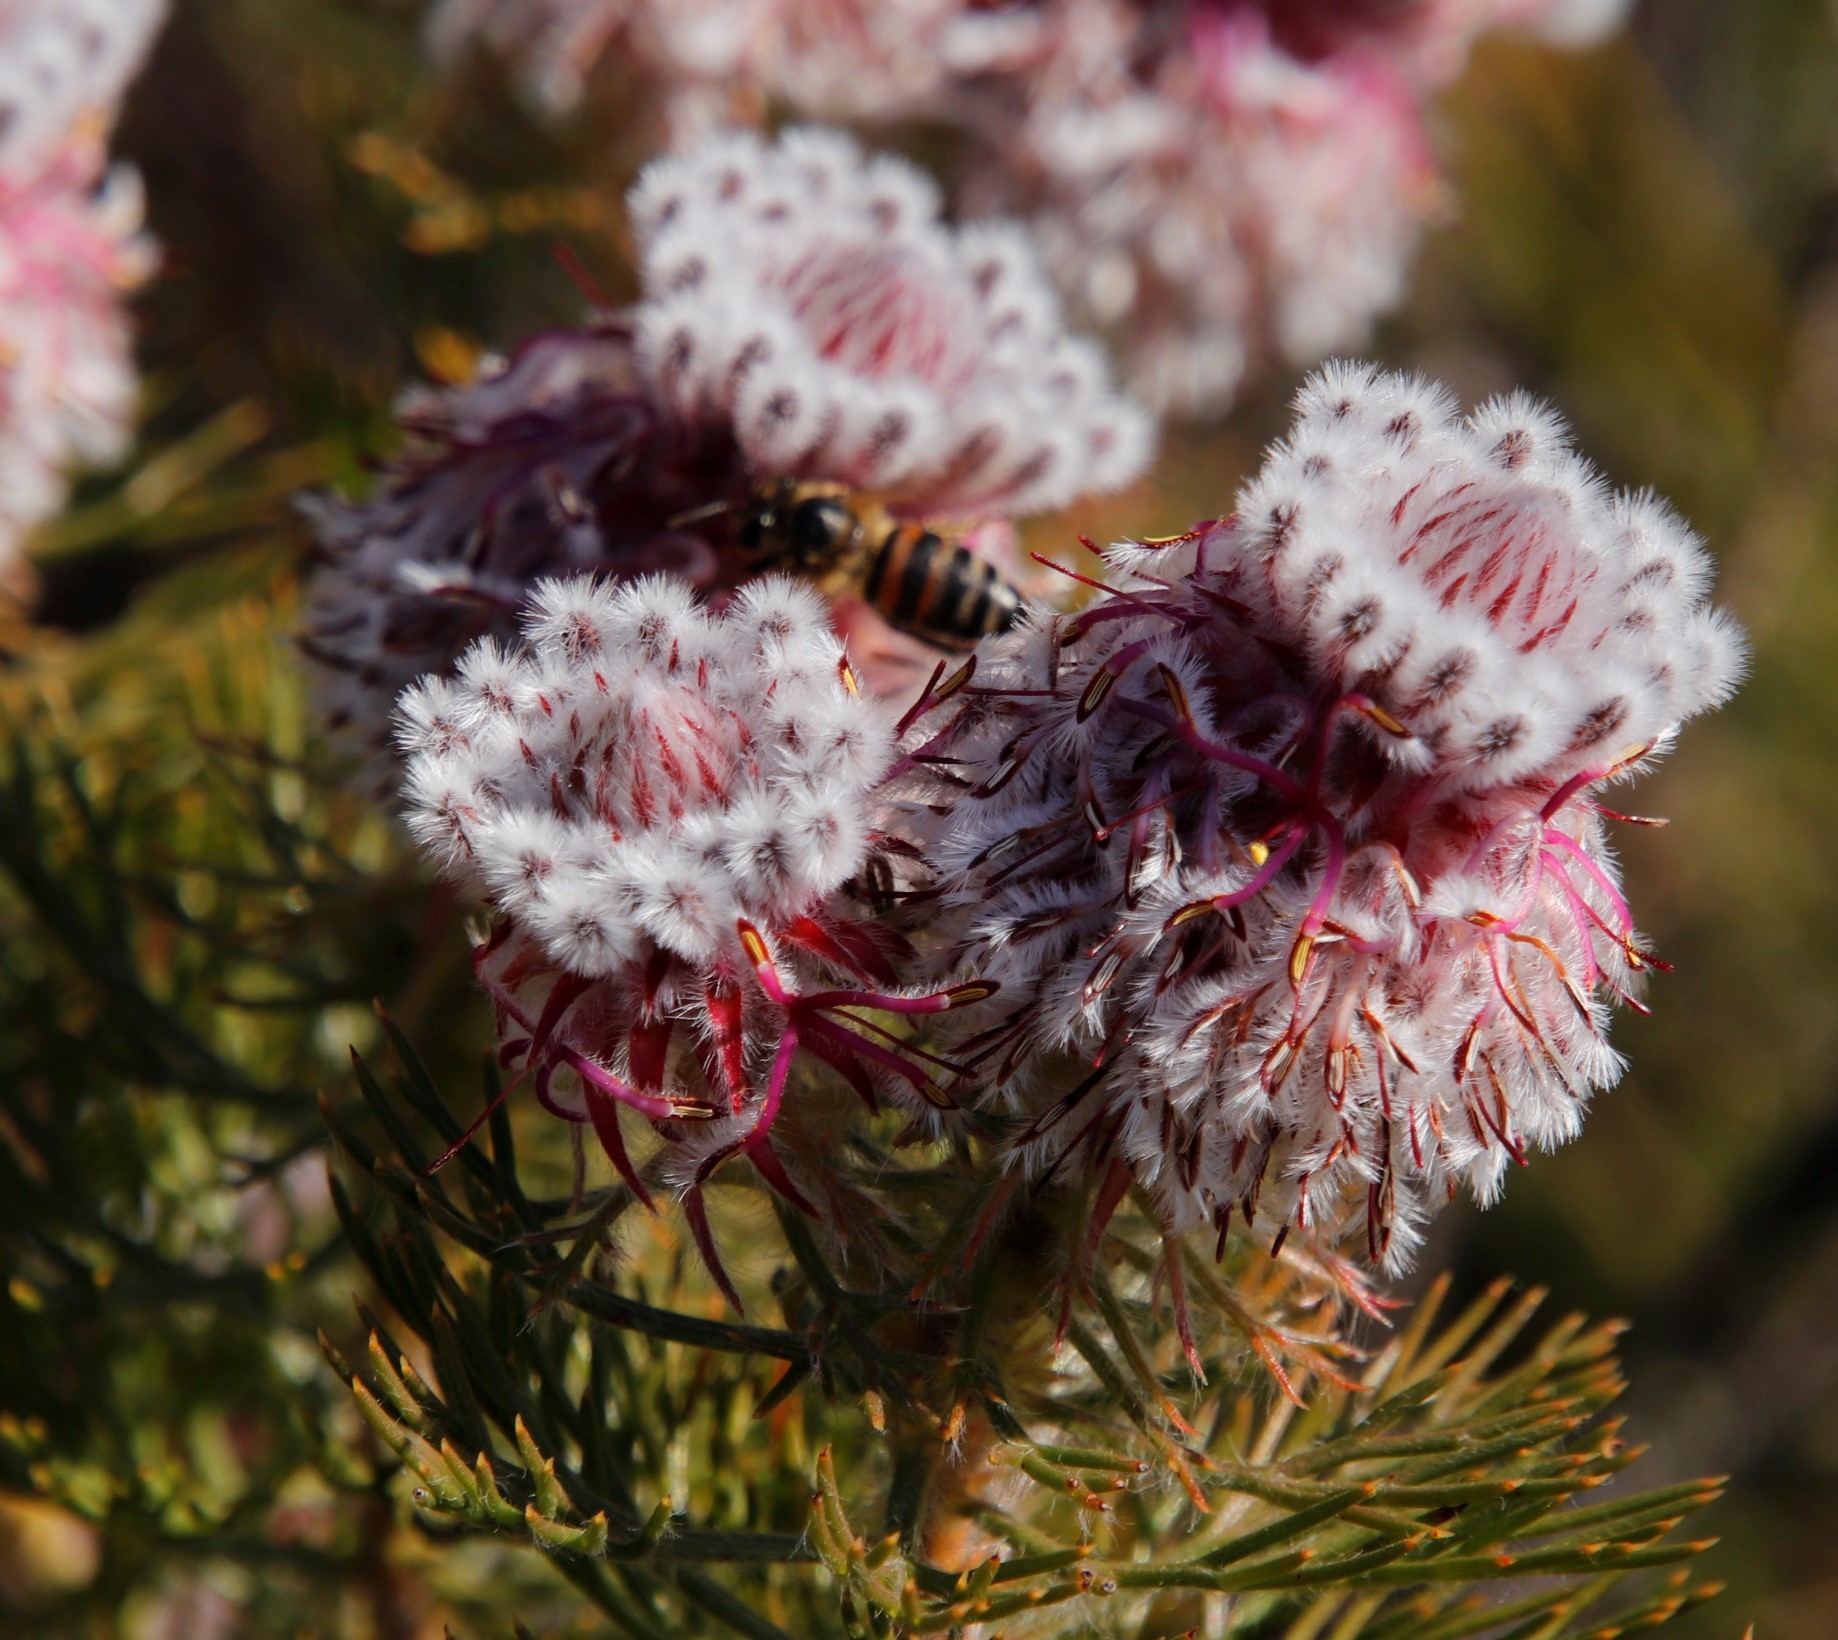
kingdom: Animalia
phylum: Arthropoda
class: Insecta
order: Hymenoptera
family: Apidae
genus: Apis
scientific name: Apis mellifera
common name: Honey bee
